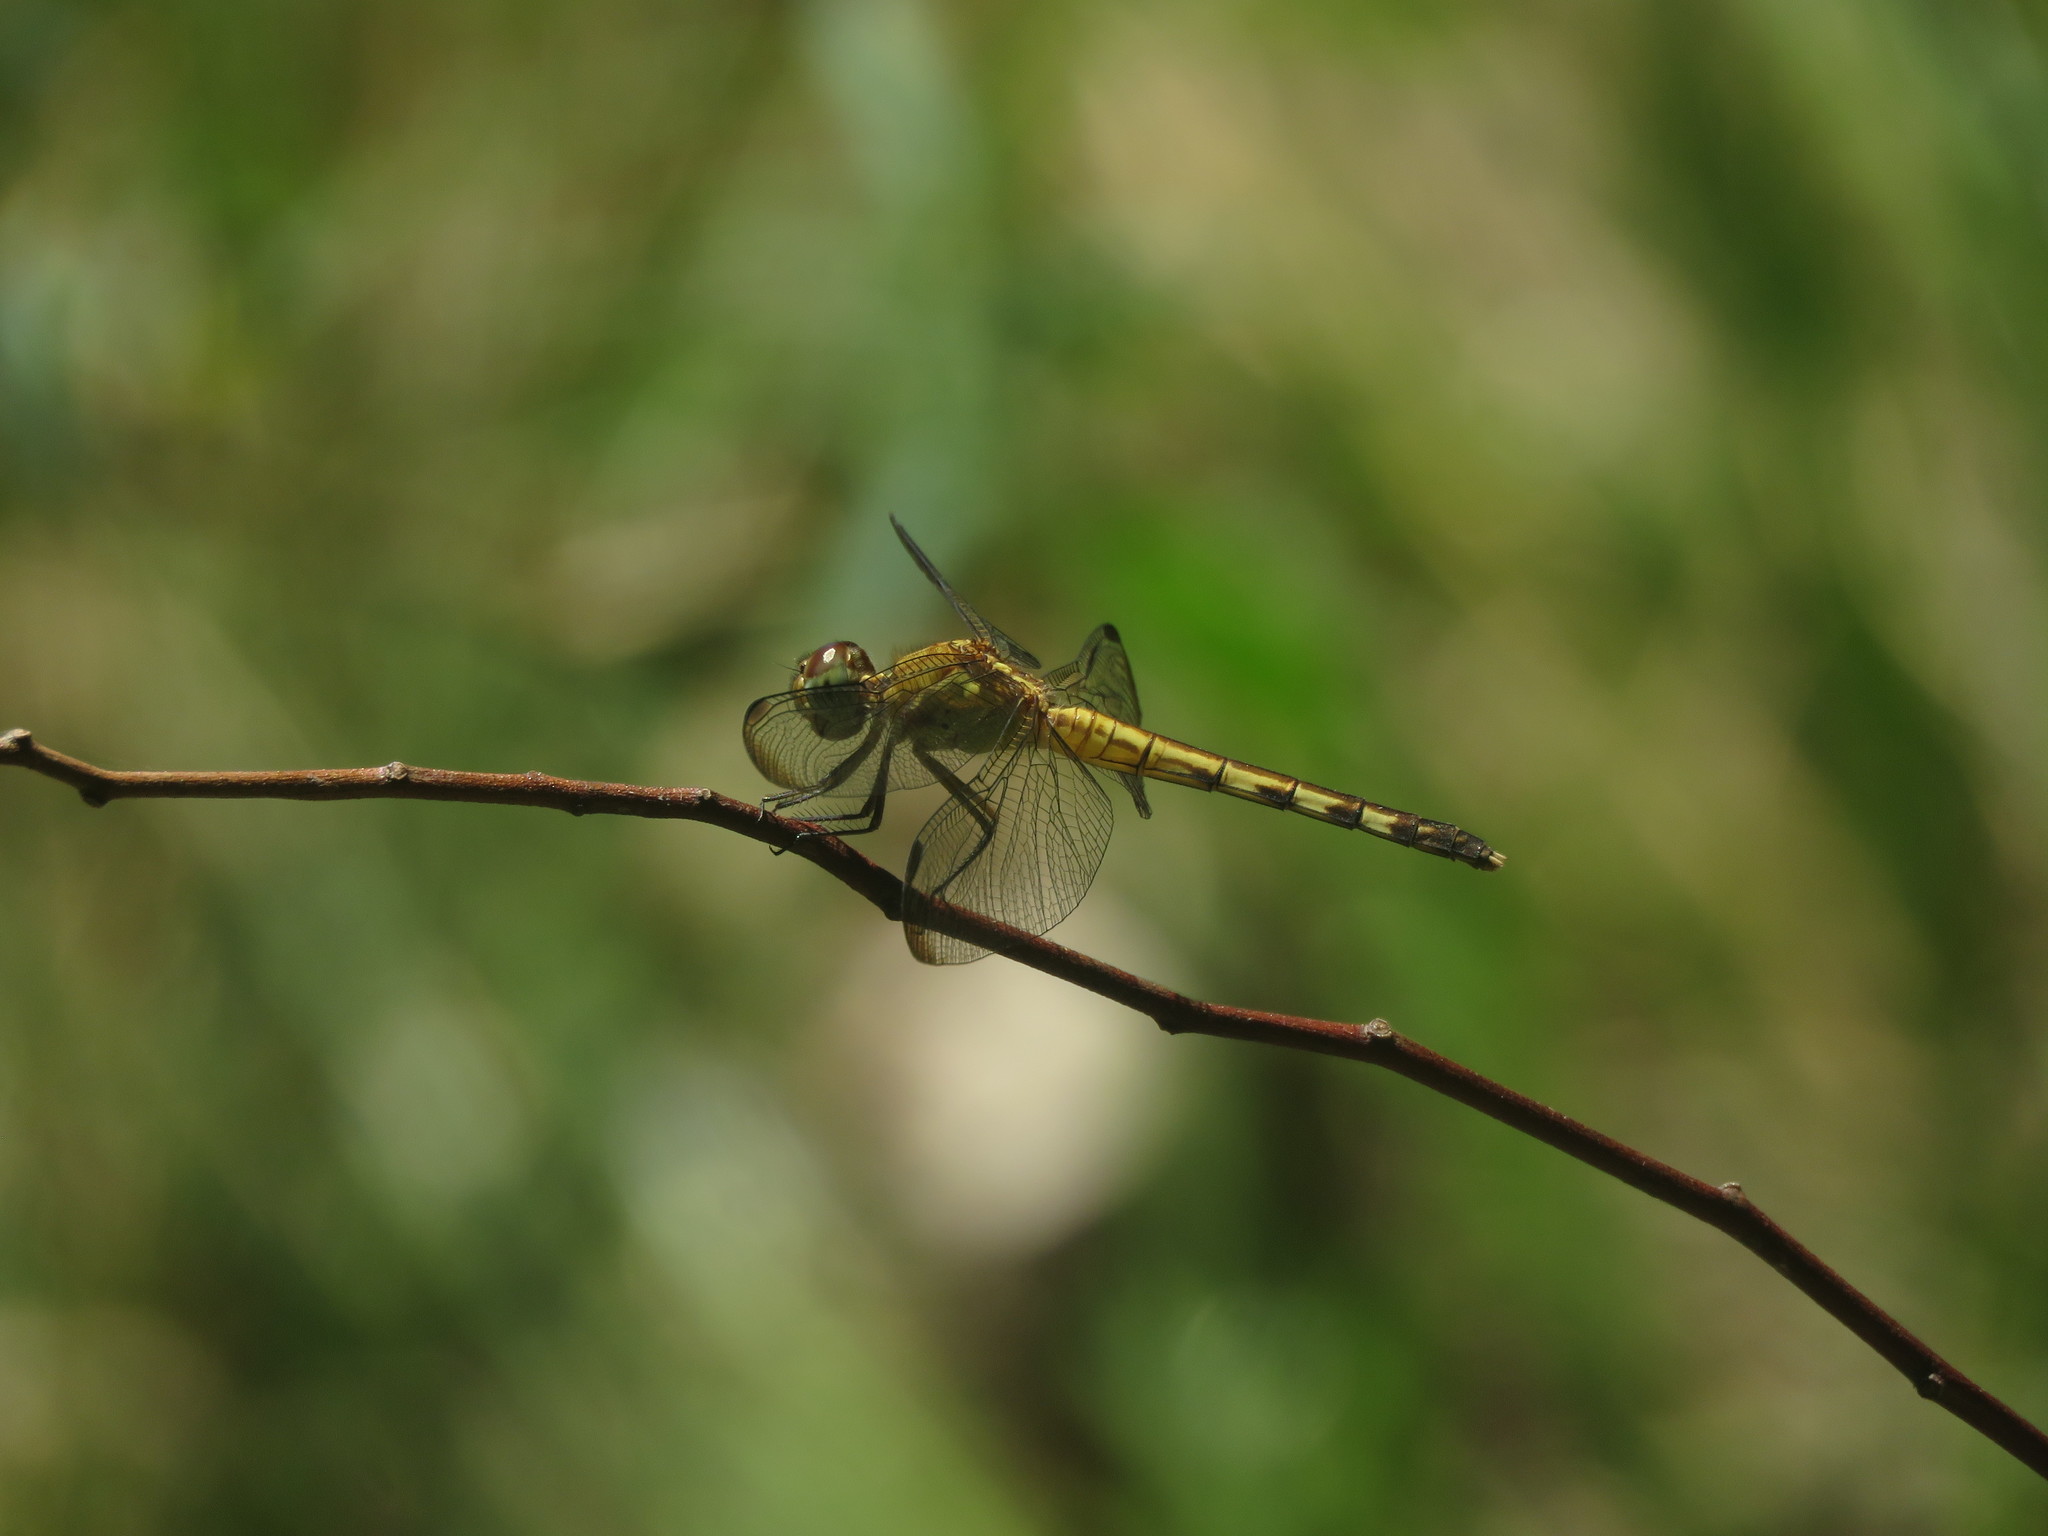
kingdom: Animalia
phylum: Arthropoda
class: Insecta
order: Odonata
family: Libellulidae
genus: Erythrodiplax
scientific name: Erythrodiplax umbrata
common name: Band-winged dragonlet
